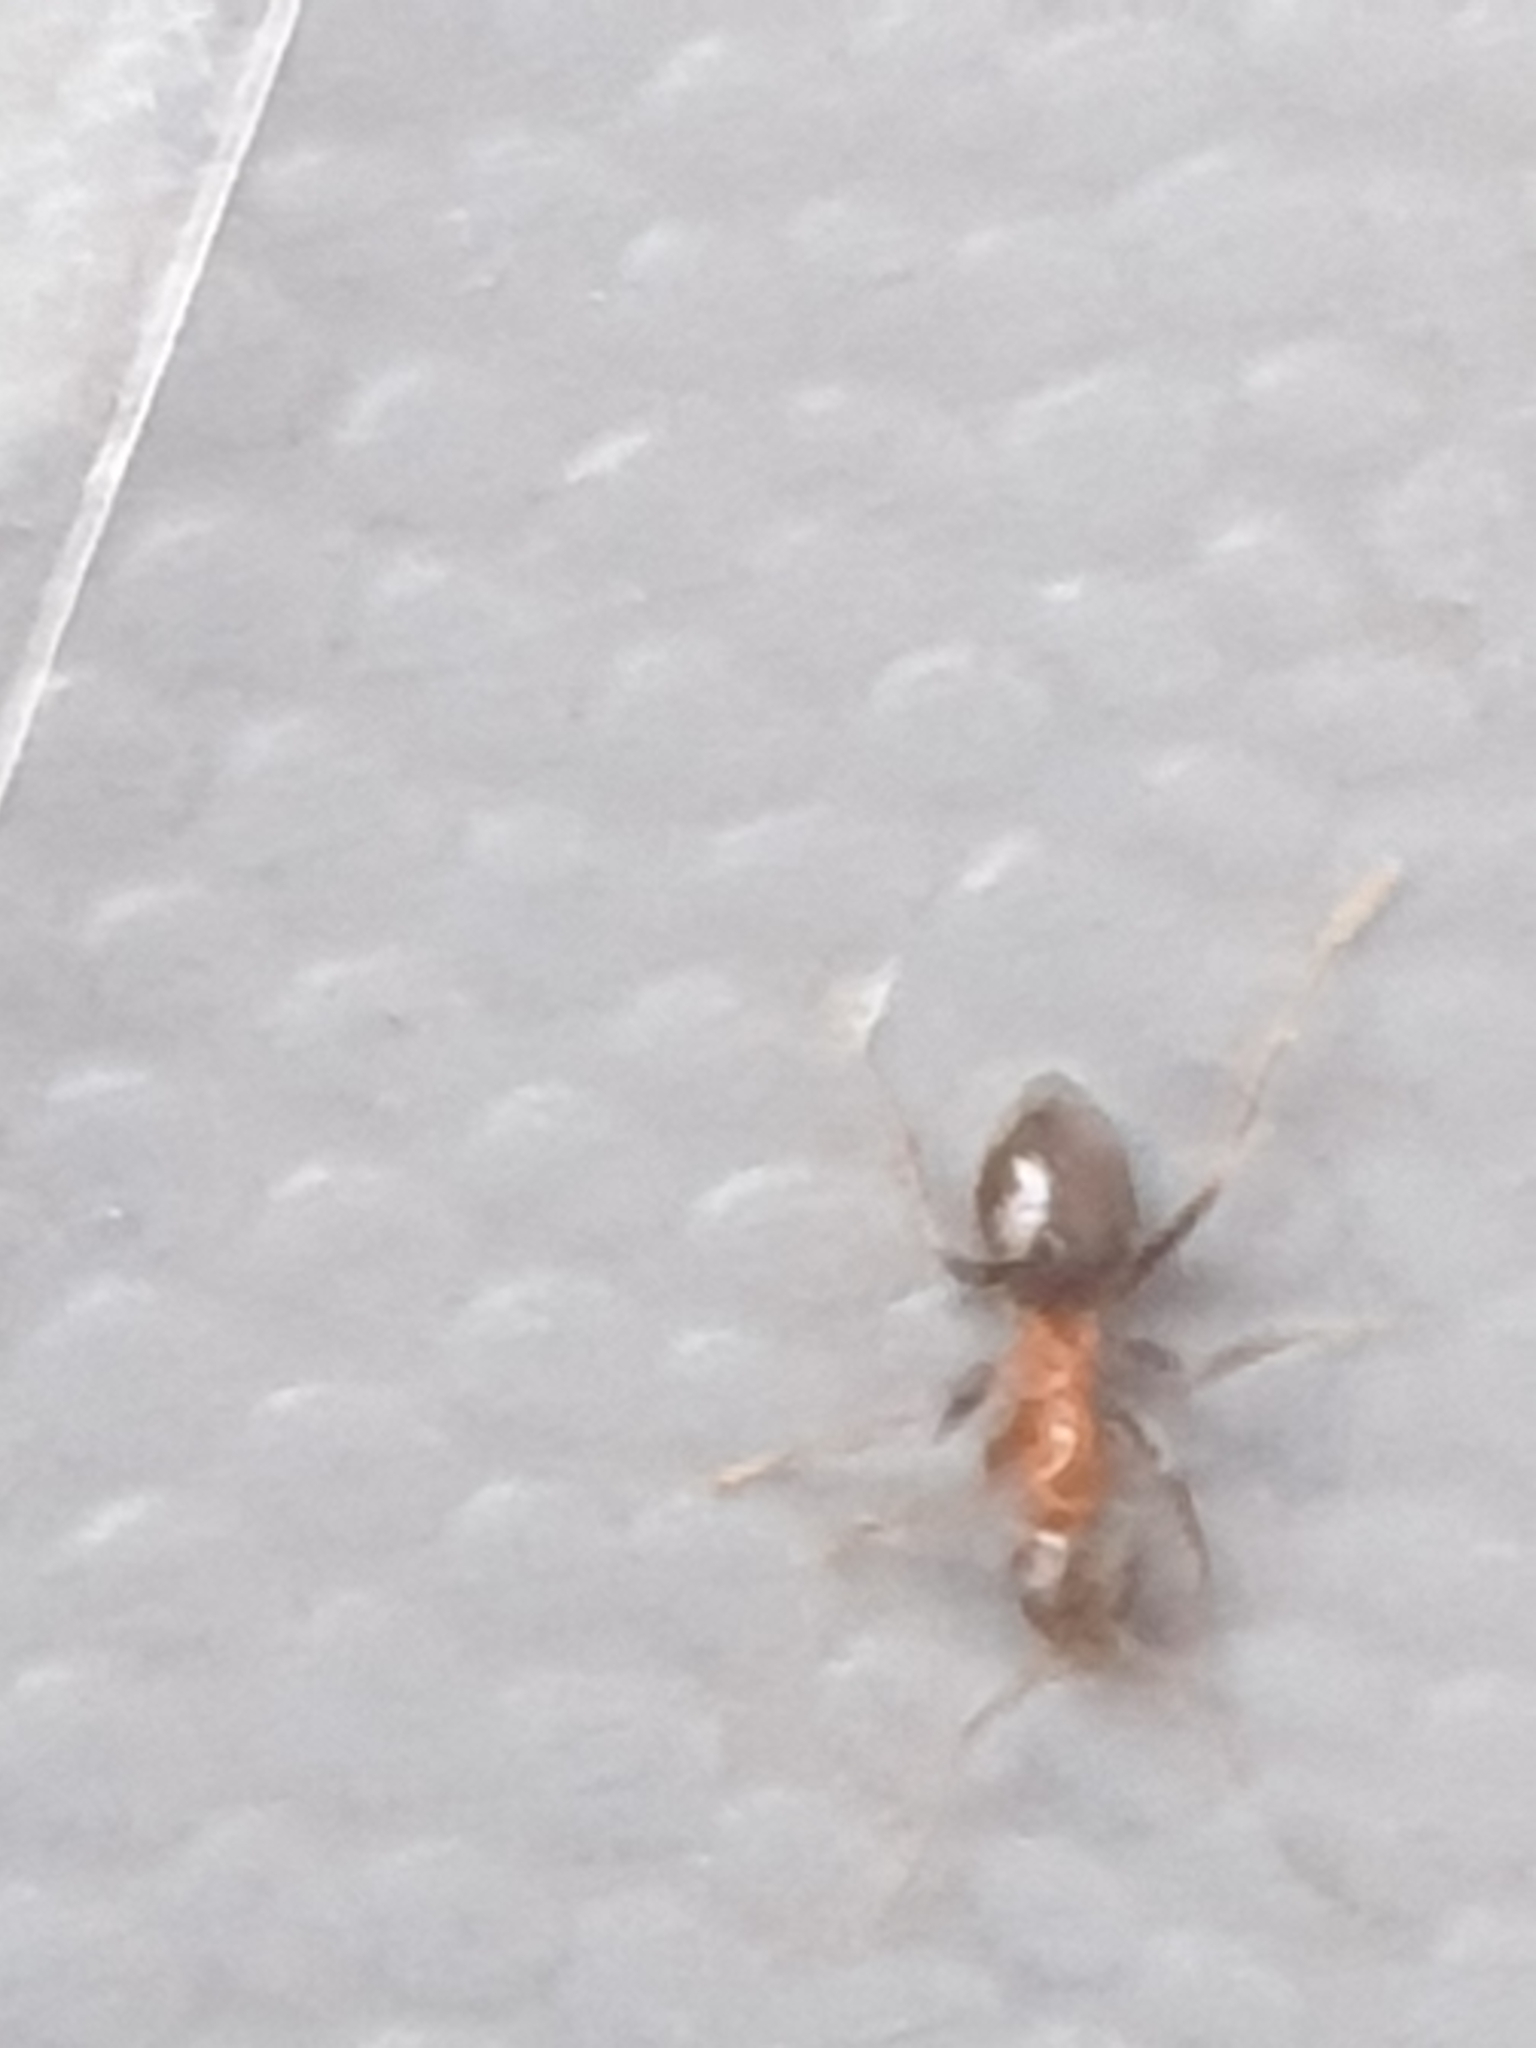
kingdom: Animalia
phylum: Arthropoda
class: Insecta
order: Hymenoptera
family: Formicidae
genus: Lasius
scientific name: Lasius emarginatus
